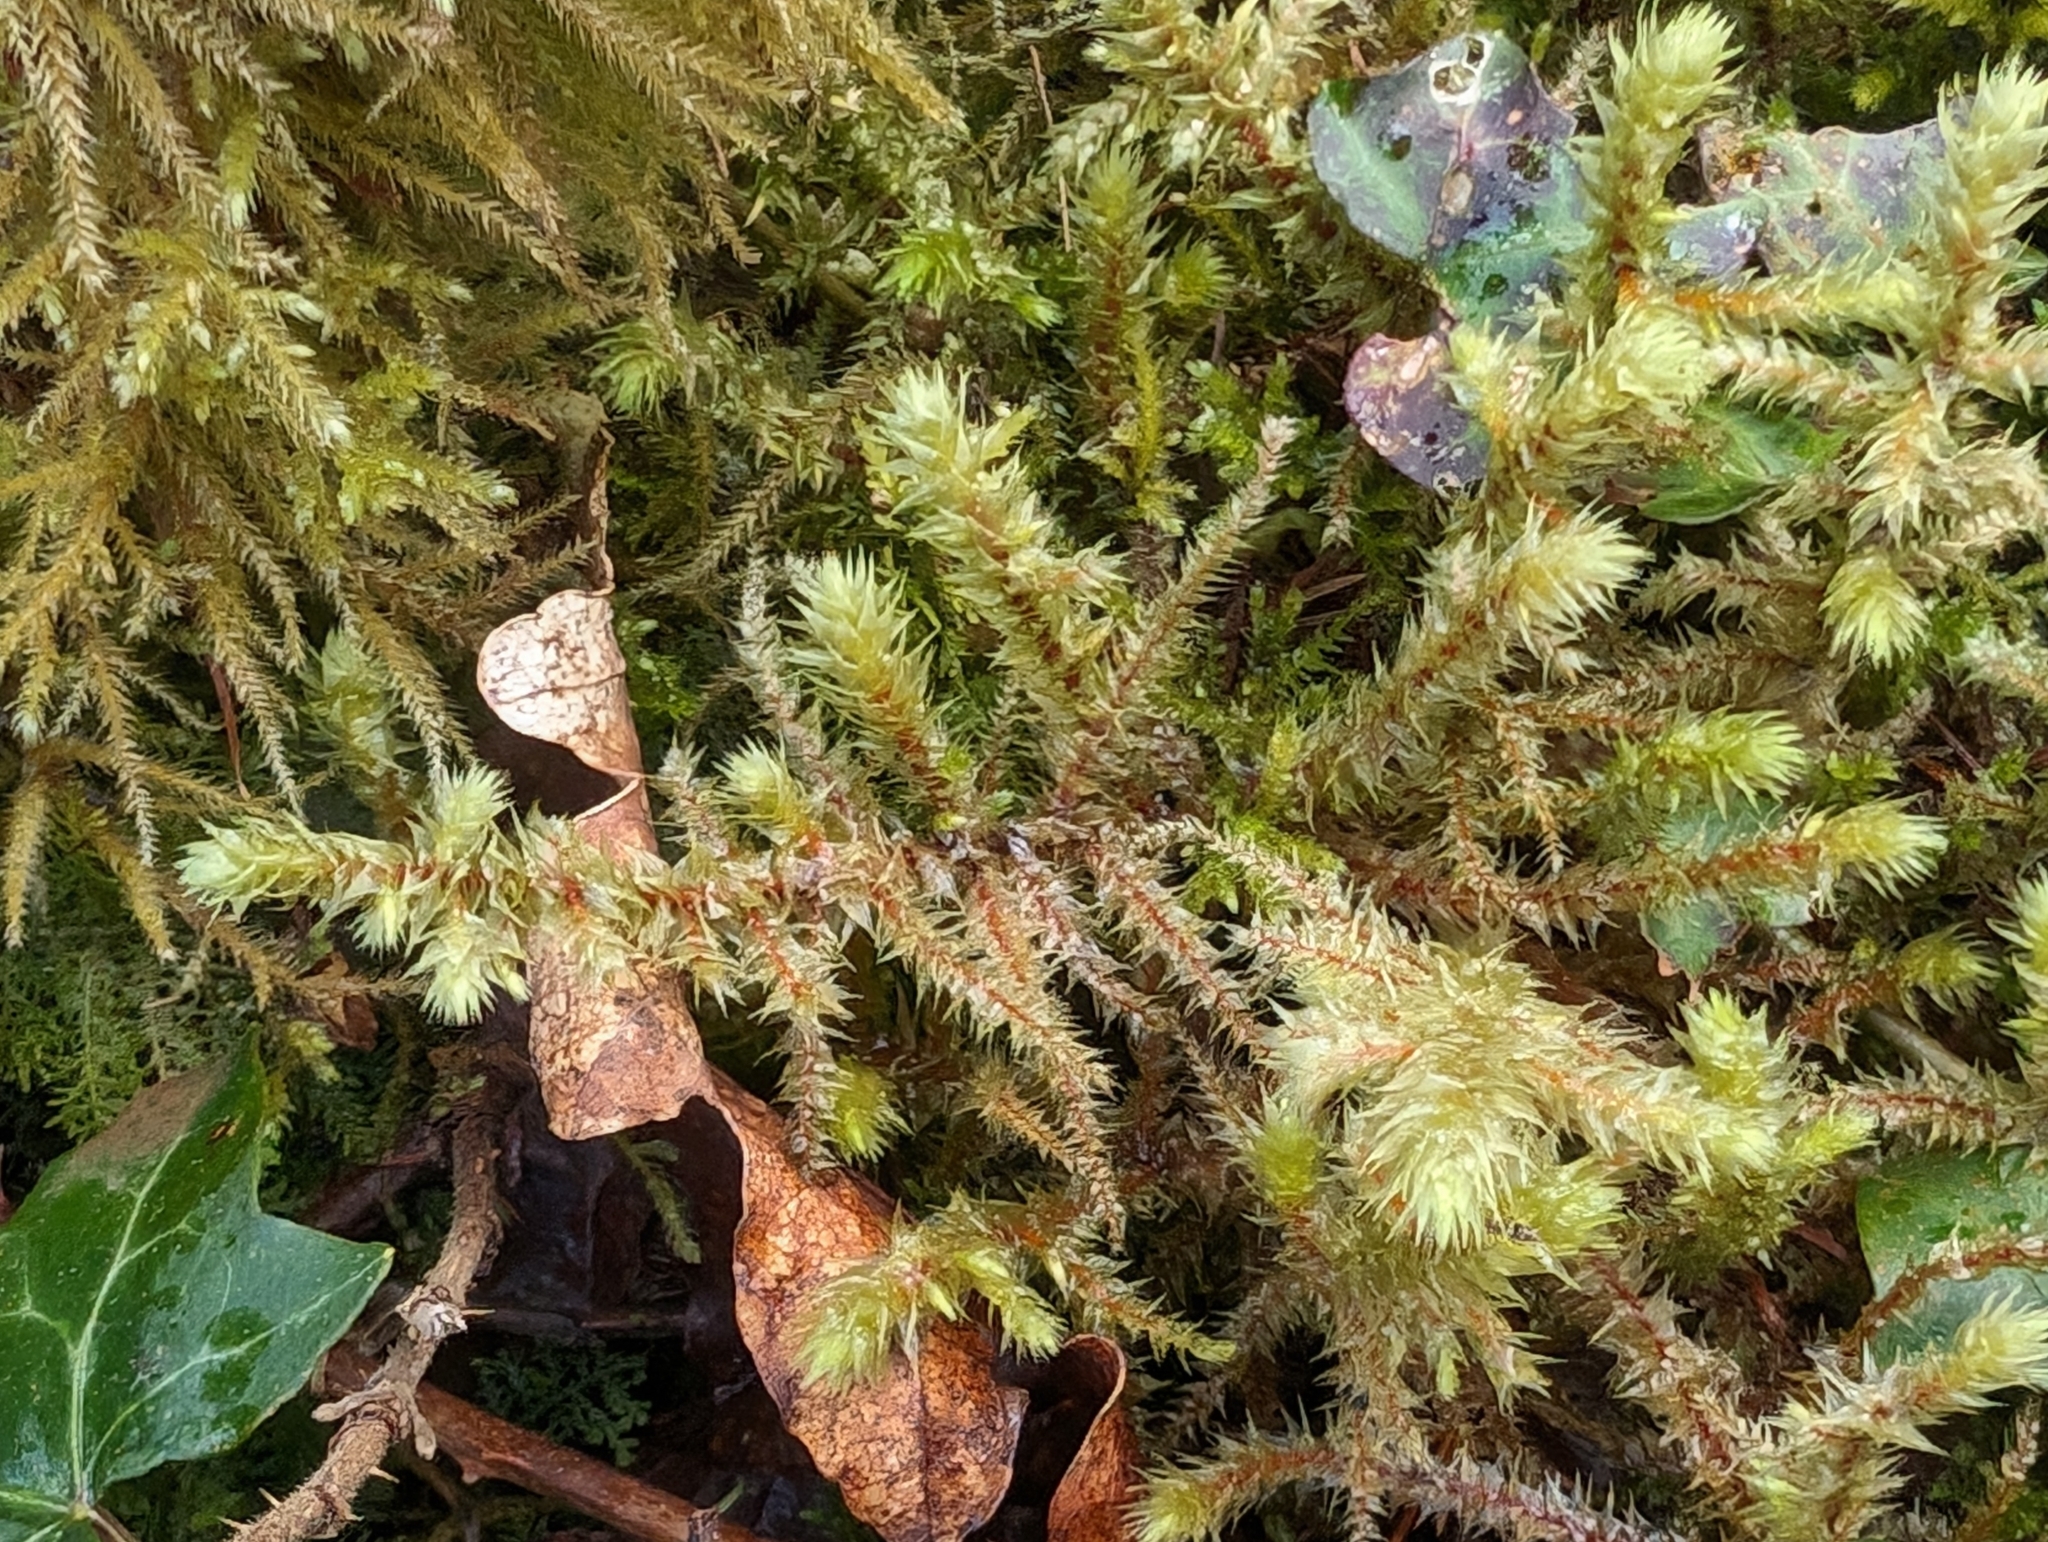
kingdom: Plantae
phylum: Bryophyta
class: Bryopsida
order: Hypnales
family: Hylocomiaceae
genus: Hylocomiadelphus
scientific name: Hylocomiadelphus triquetrus
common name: Rough goose neck moss
